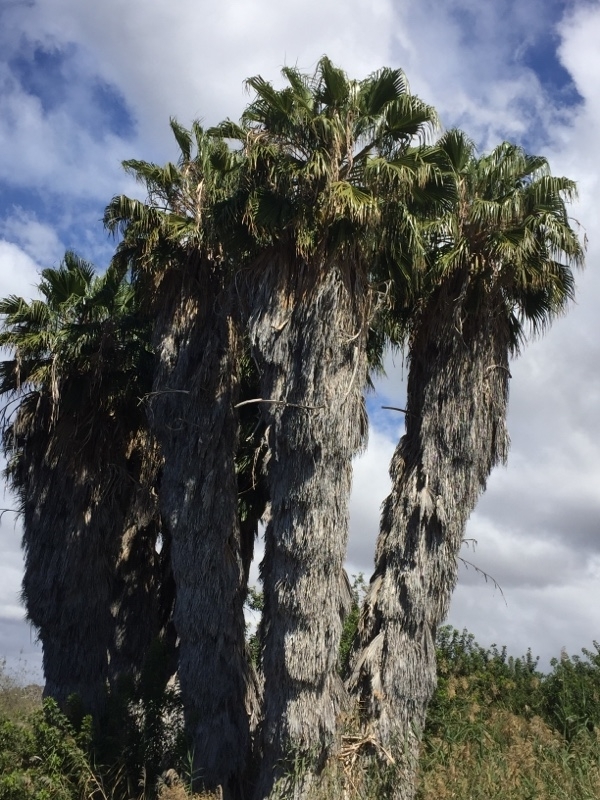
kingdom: Plantae
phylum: Tracheophyta
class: Liliopsida
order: Arecales
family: Arecaceae
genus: Washingtonia
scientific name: Washingtonia robusta
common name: Mexican fan palm
